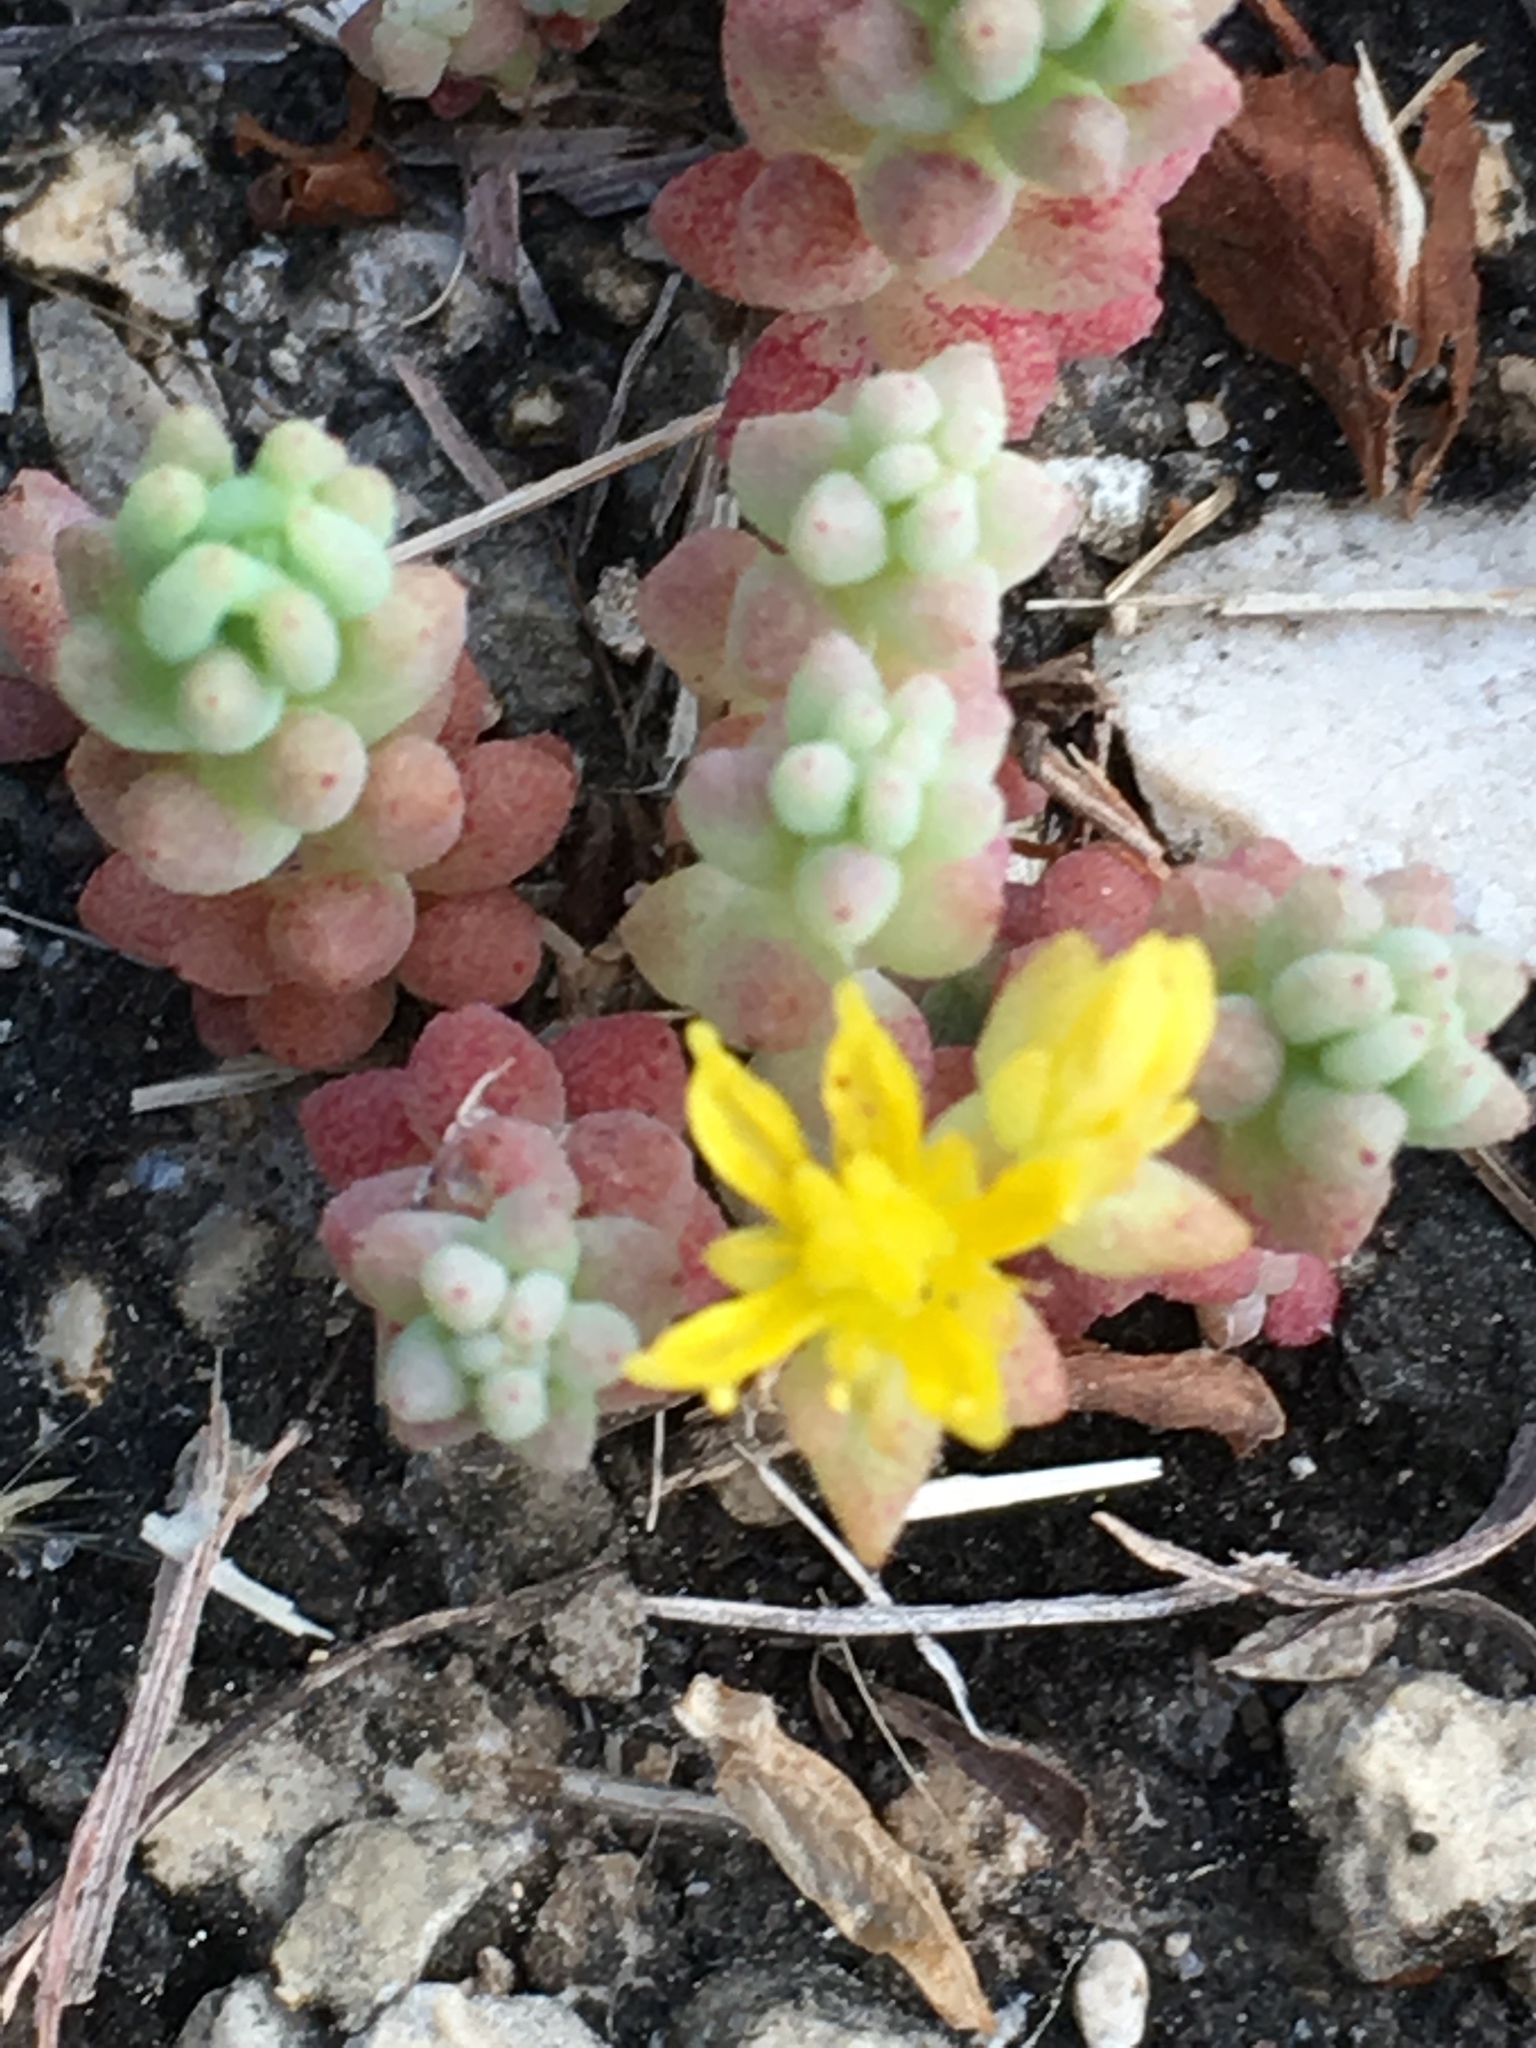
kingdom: Plantae
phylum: Tracheophyta
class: Magnoliopsida
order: Saxifragales
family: Crassulaceae
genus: Sedum
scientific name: Sedum nuttallii
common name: Yellow stonecrop
